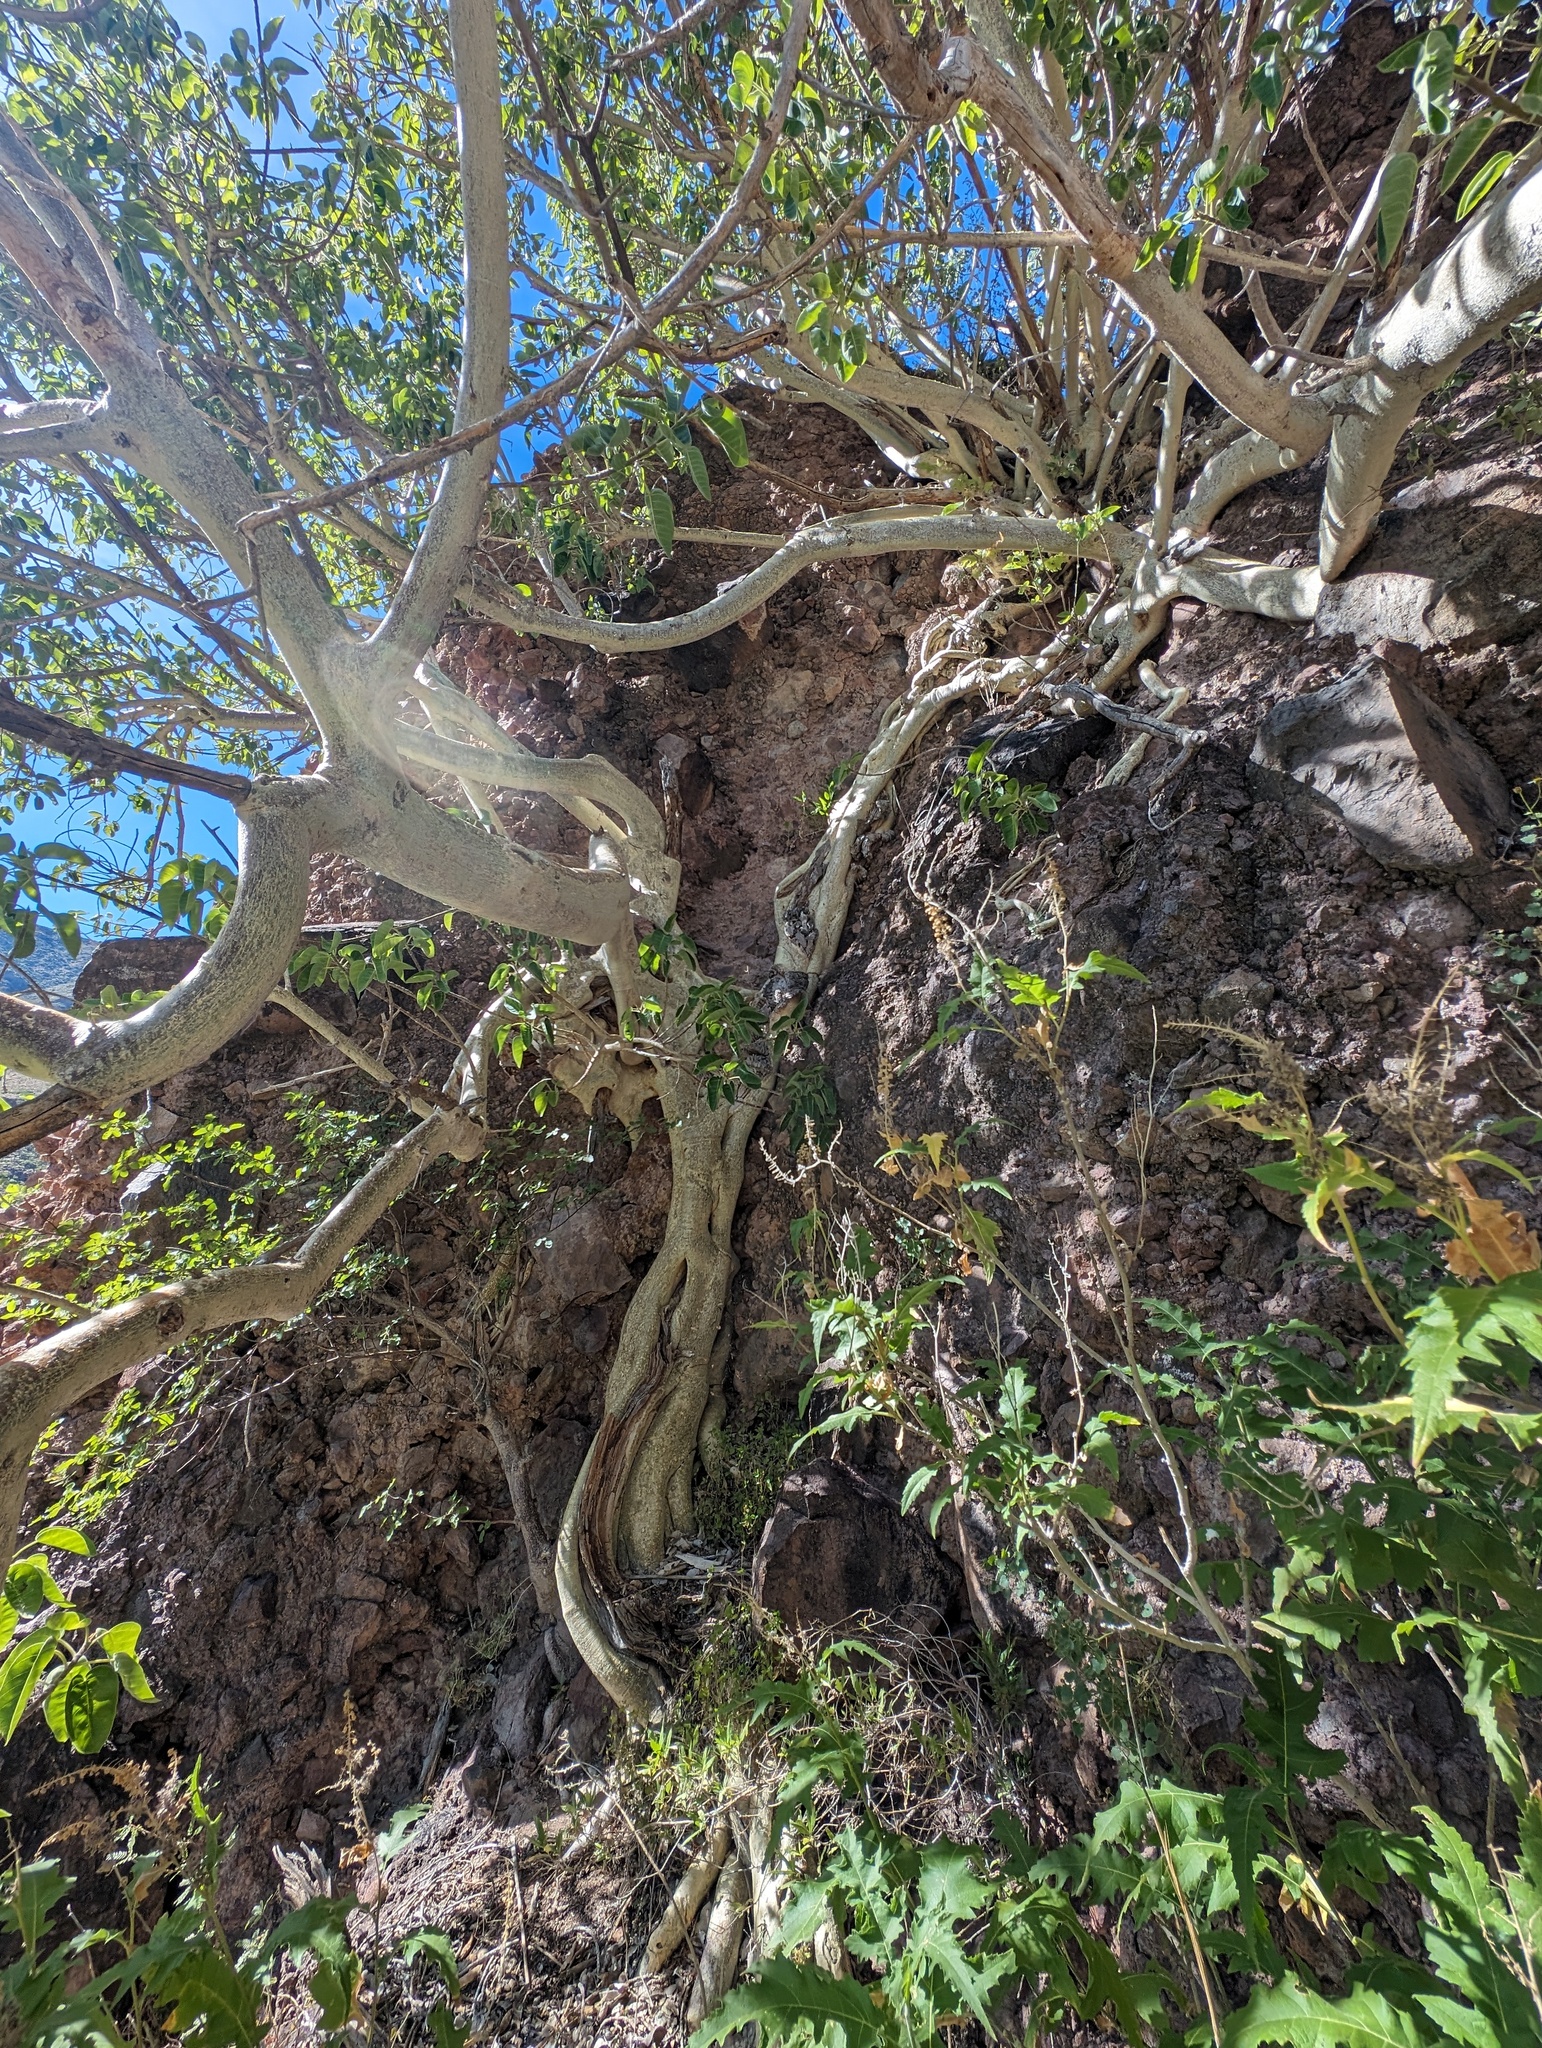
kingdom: Plantae
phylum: Tracheophyta
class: Magnoliopsida
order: Rosales
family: Moraceae
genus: Ficus
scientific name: Ficus petiolaris
